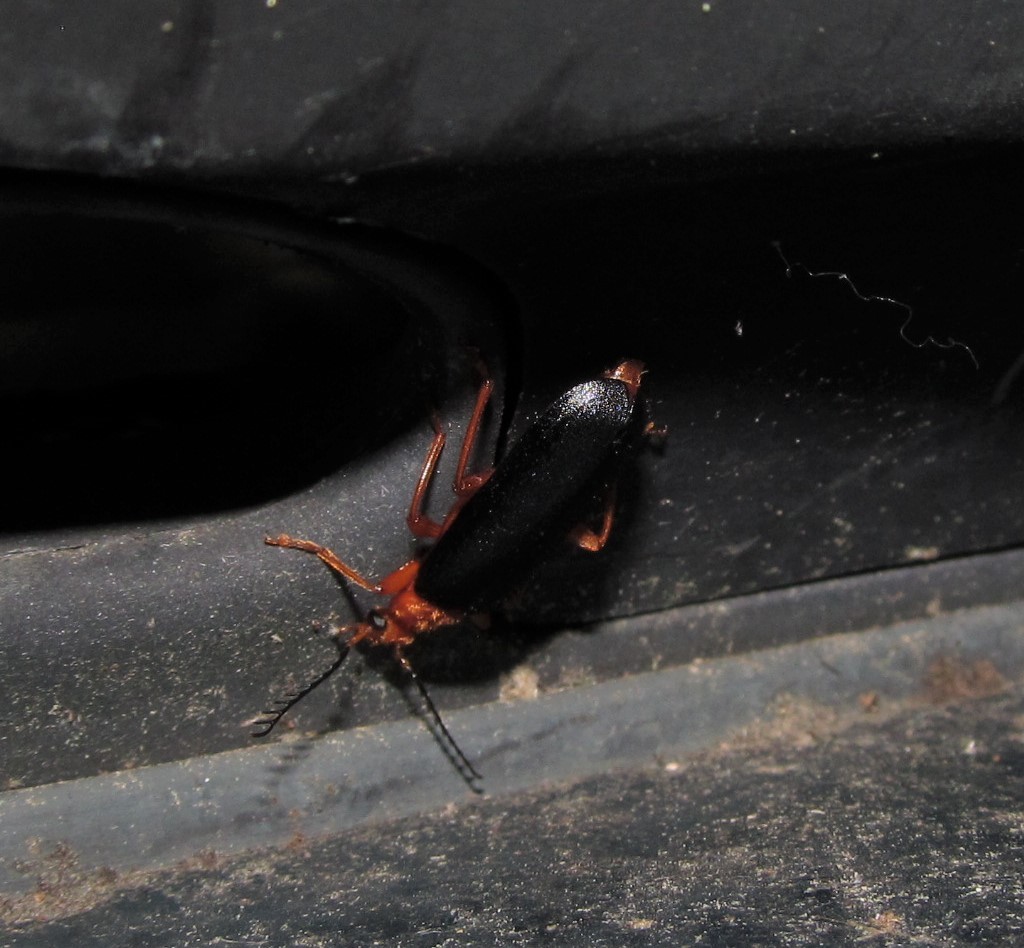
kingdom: Animalia
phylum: Arthropoda
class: Insecta
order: Coleoptera
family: Pyrochroidae
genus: Neopyrochroa
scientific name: Neopyrochroa flabellata
